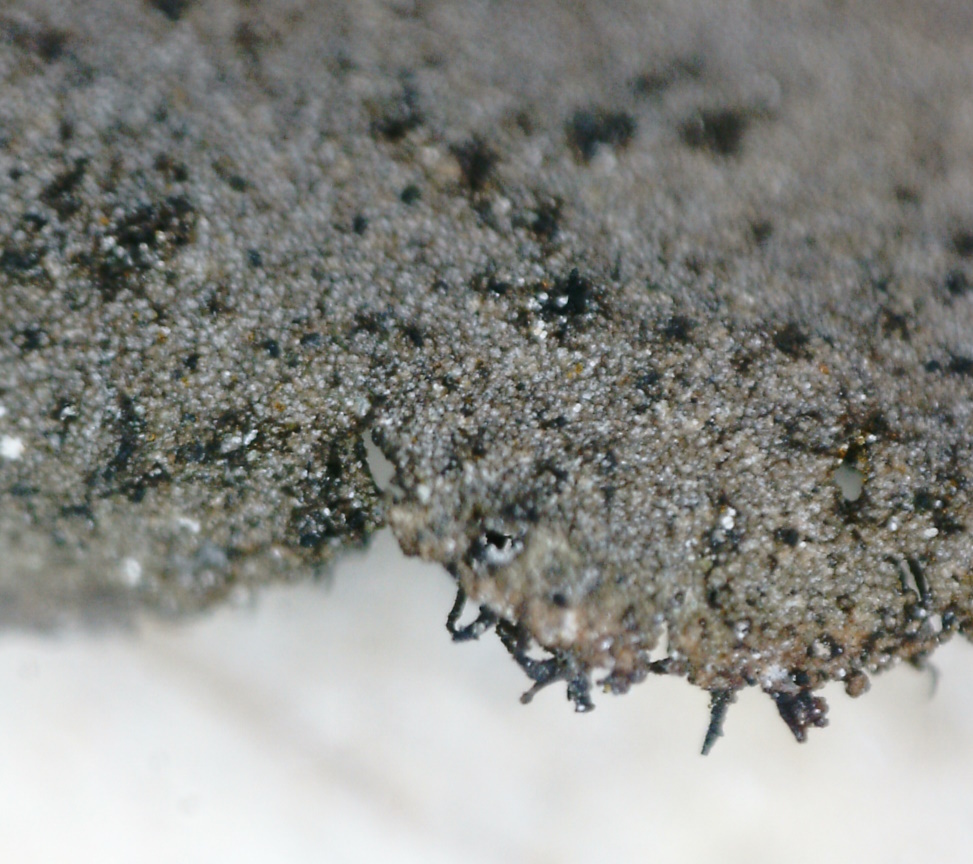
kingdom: Fungi
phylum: Ascomycota
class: Lecanoromycetes
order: Umbilicariales
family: Umbilicariaceae
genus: Umbilicaria
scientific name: Umbilicaria vellea
